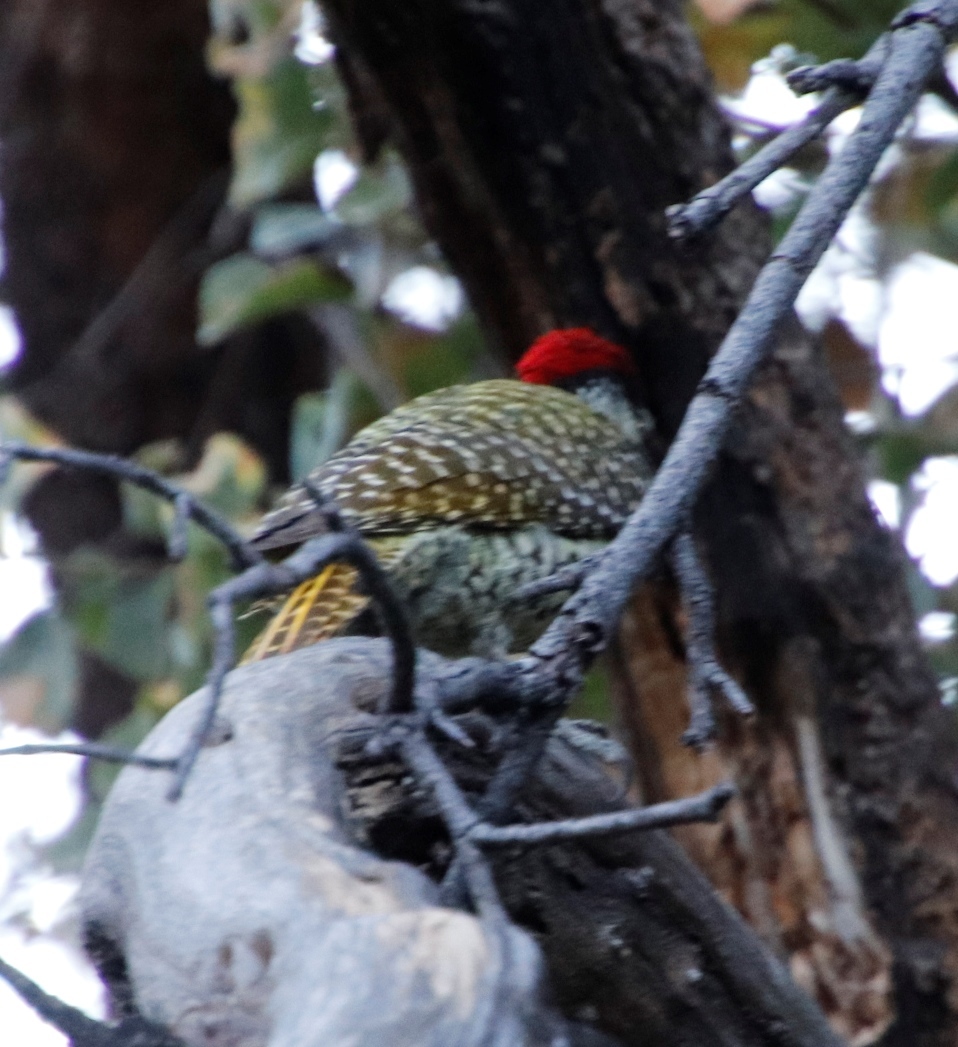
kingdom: Animalia
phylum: Chordata
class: Aves
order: Piciformes
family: Picidae
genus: Campethera
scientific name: Campethera abingoni
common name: Golden-tailed woodpecker
